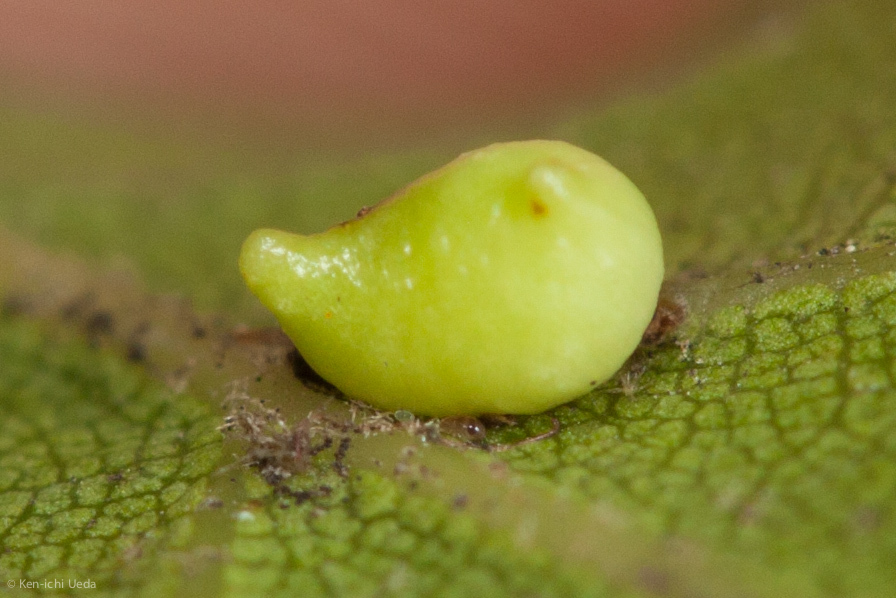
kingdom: Animalia
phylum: Arthropoda
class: Insecta
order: Hymenoptera
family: Cynipidae
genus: Dryocosmus
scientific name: Dryocosmus
